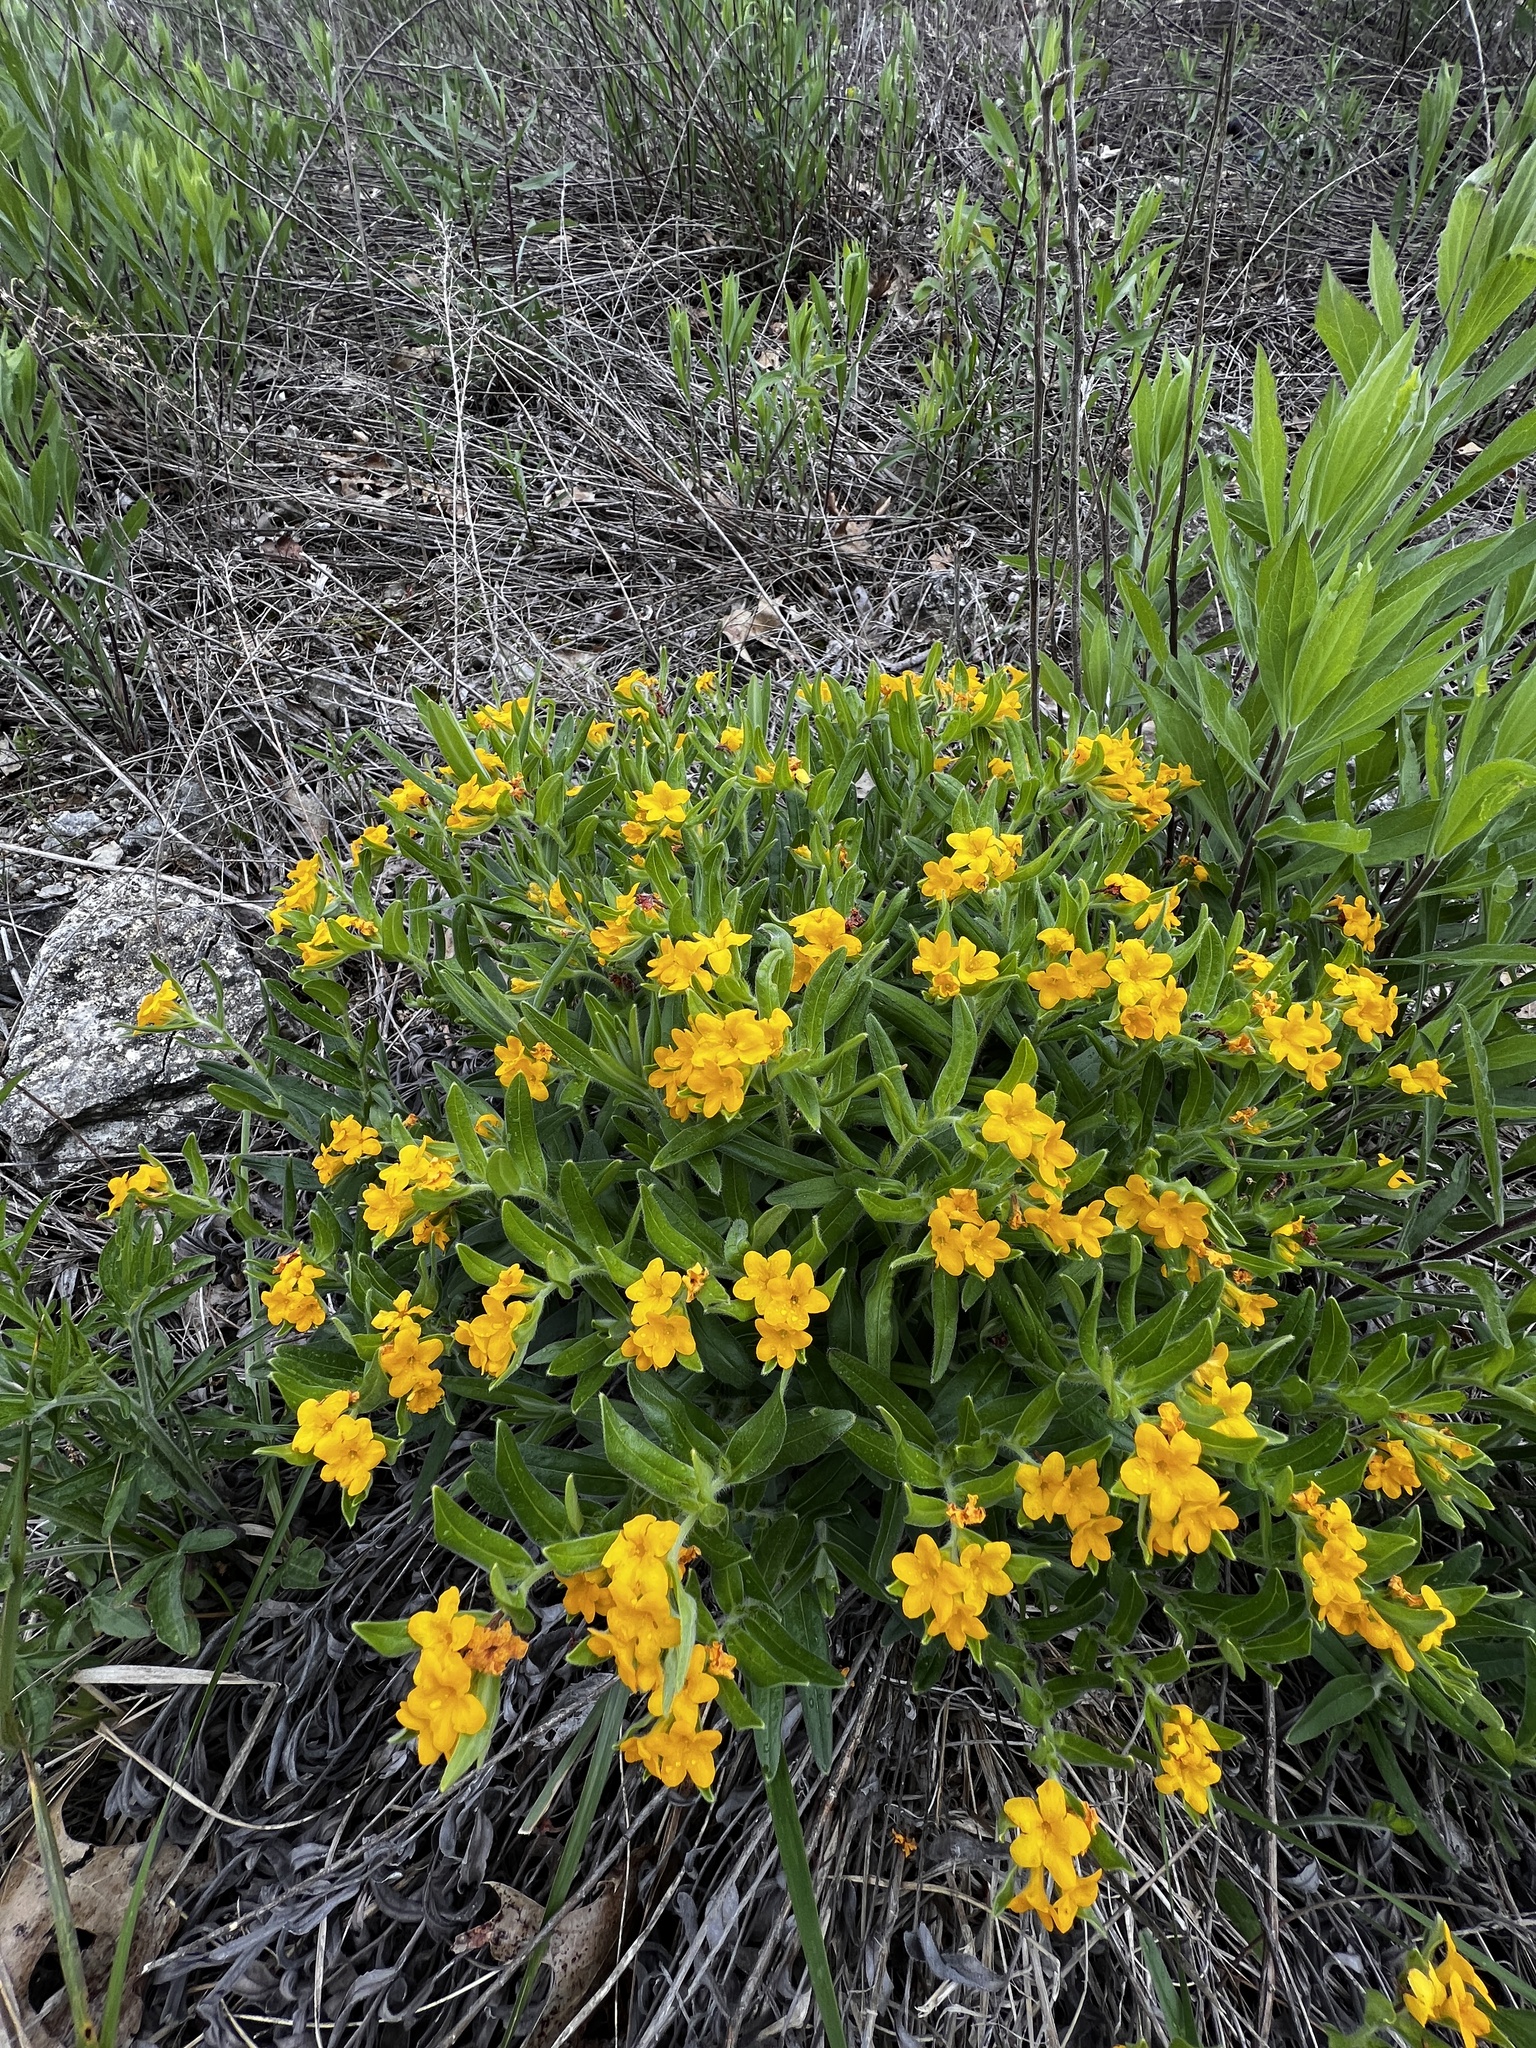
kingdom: Plantae
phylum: Tracheophyta
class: Magnoliopsida
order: Boraginales
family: Boraginaceae
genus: Lithospermum
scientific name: Lithospermum canescens
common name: Hoary puccoon
